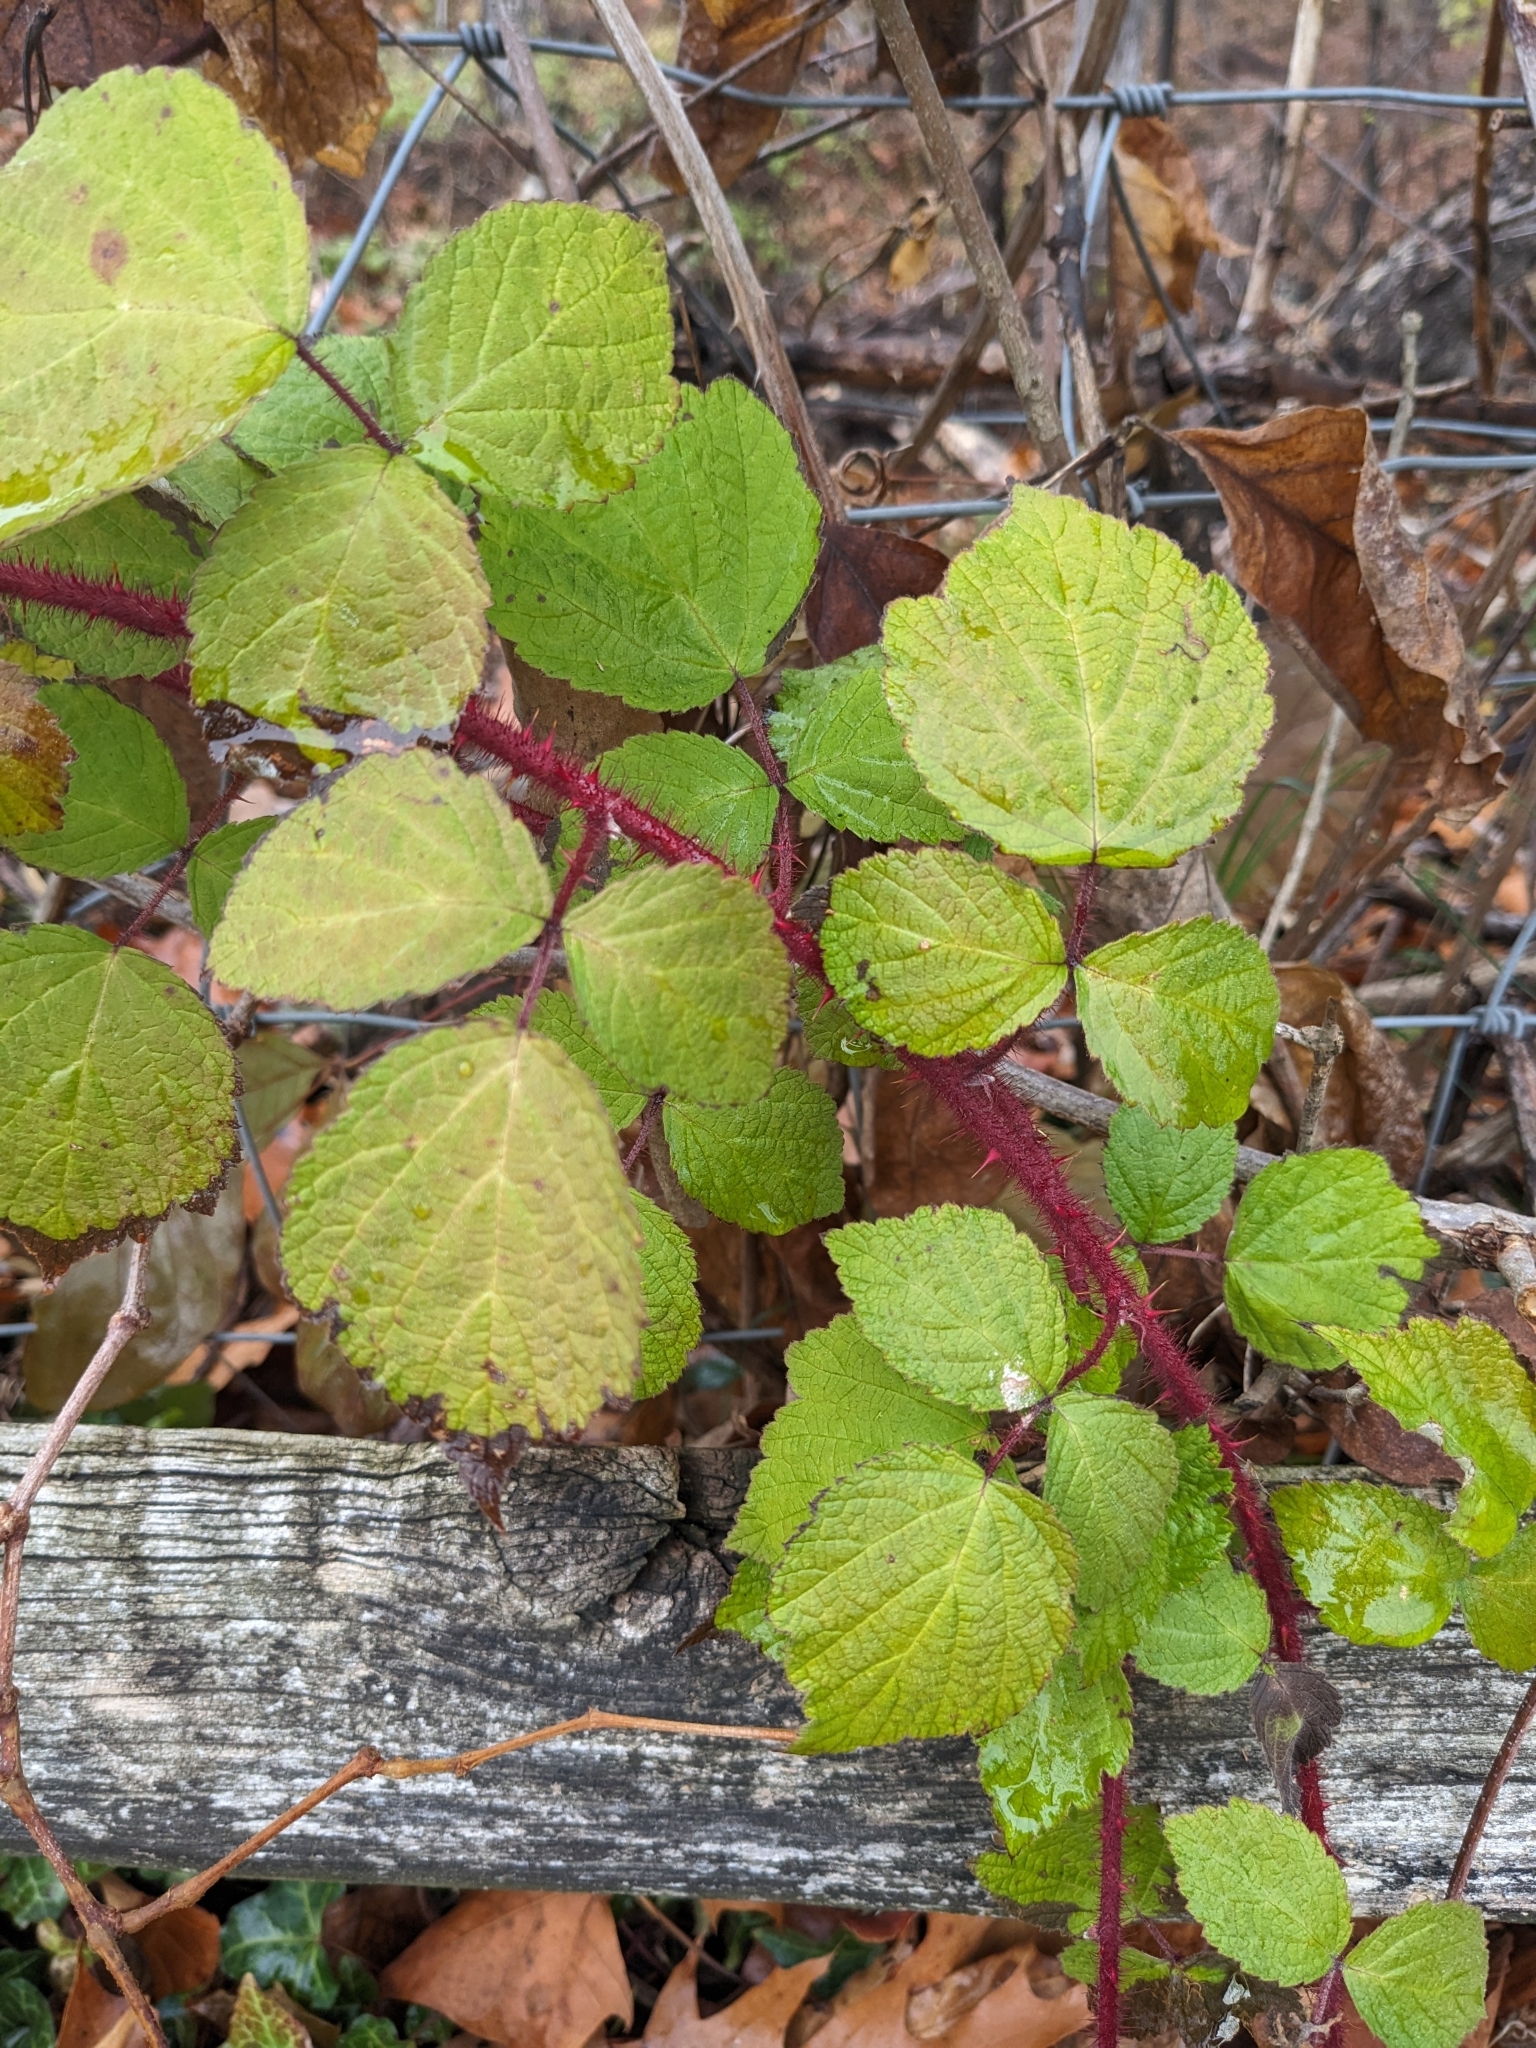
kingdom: Plantae
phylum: Tracheophyta
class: Magnoliopsida
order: Rosales
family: Rosaceae
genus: Rubus
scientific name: Rubus phoenicolasius
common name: Japanese wineberry
